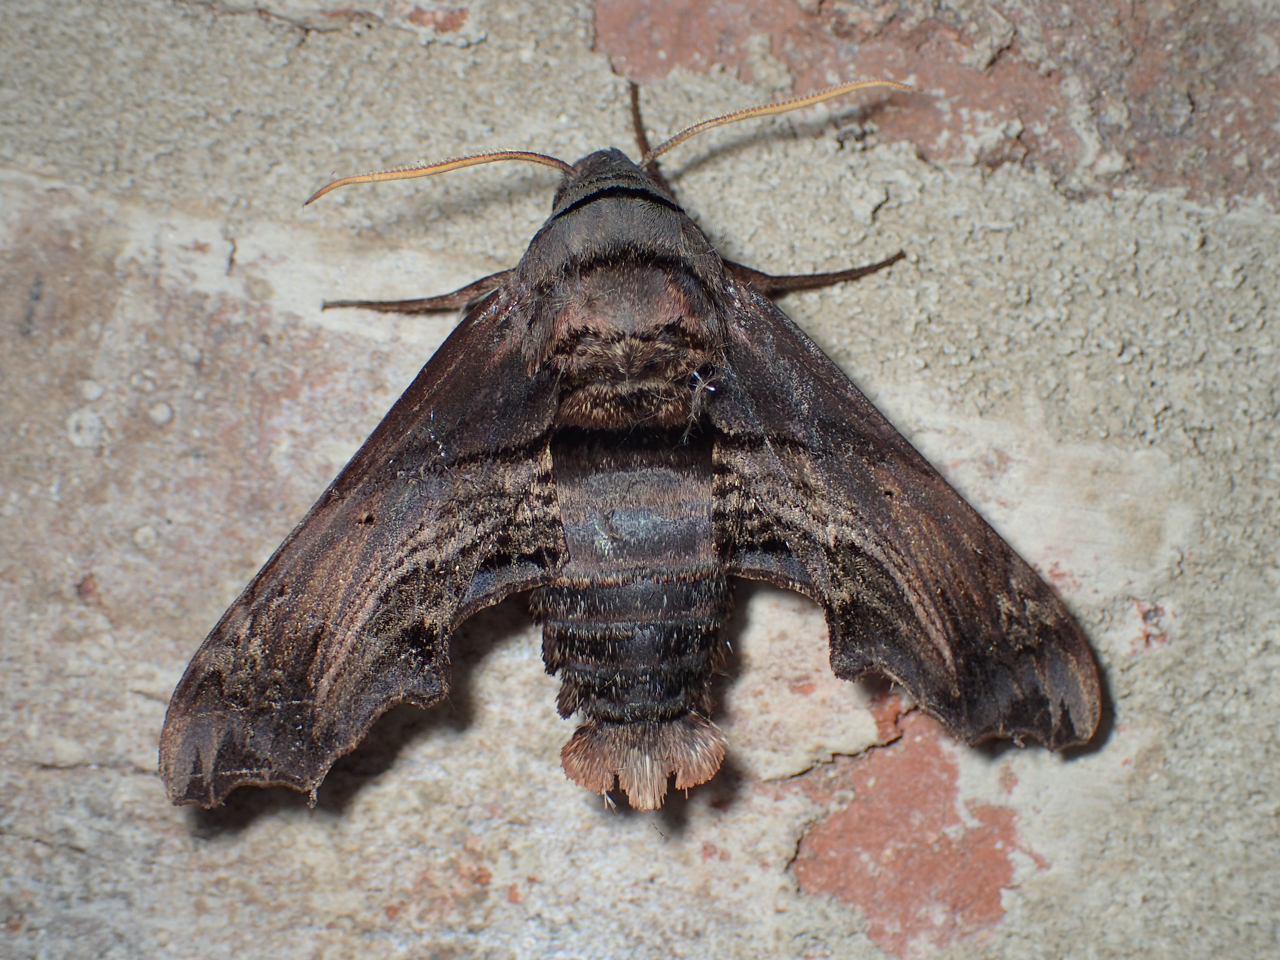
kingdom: Animalia
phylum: Arthropoda
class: Insecta
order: Lepidoptera
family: Sphingidae
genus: Sphecodina
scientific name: Sphecodina abbottii
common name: Abbott's sphinx
